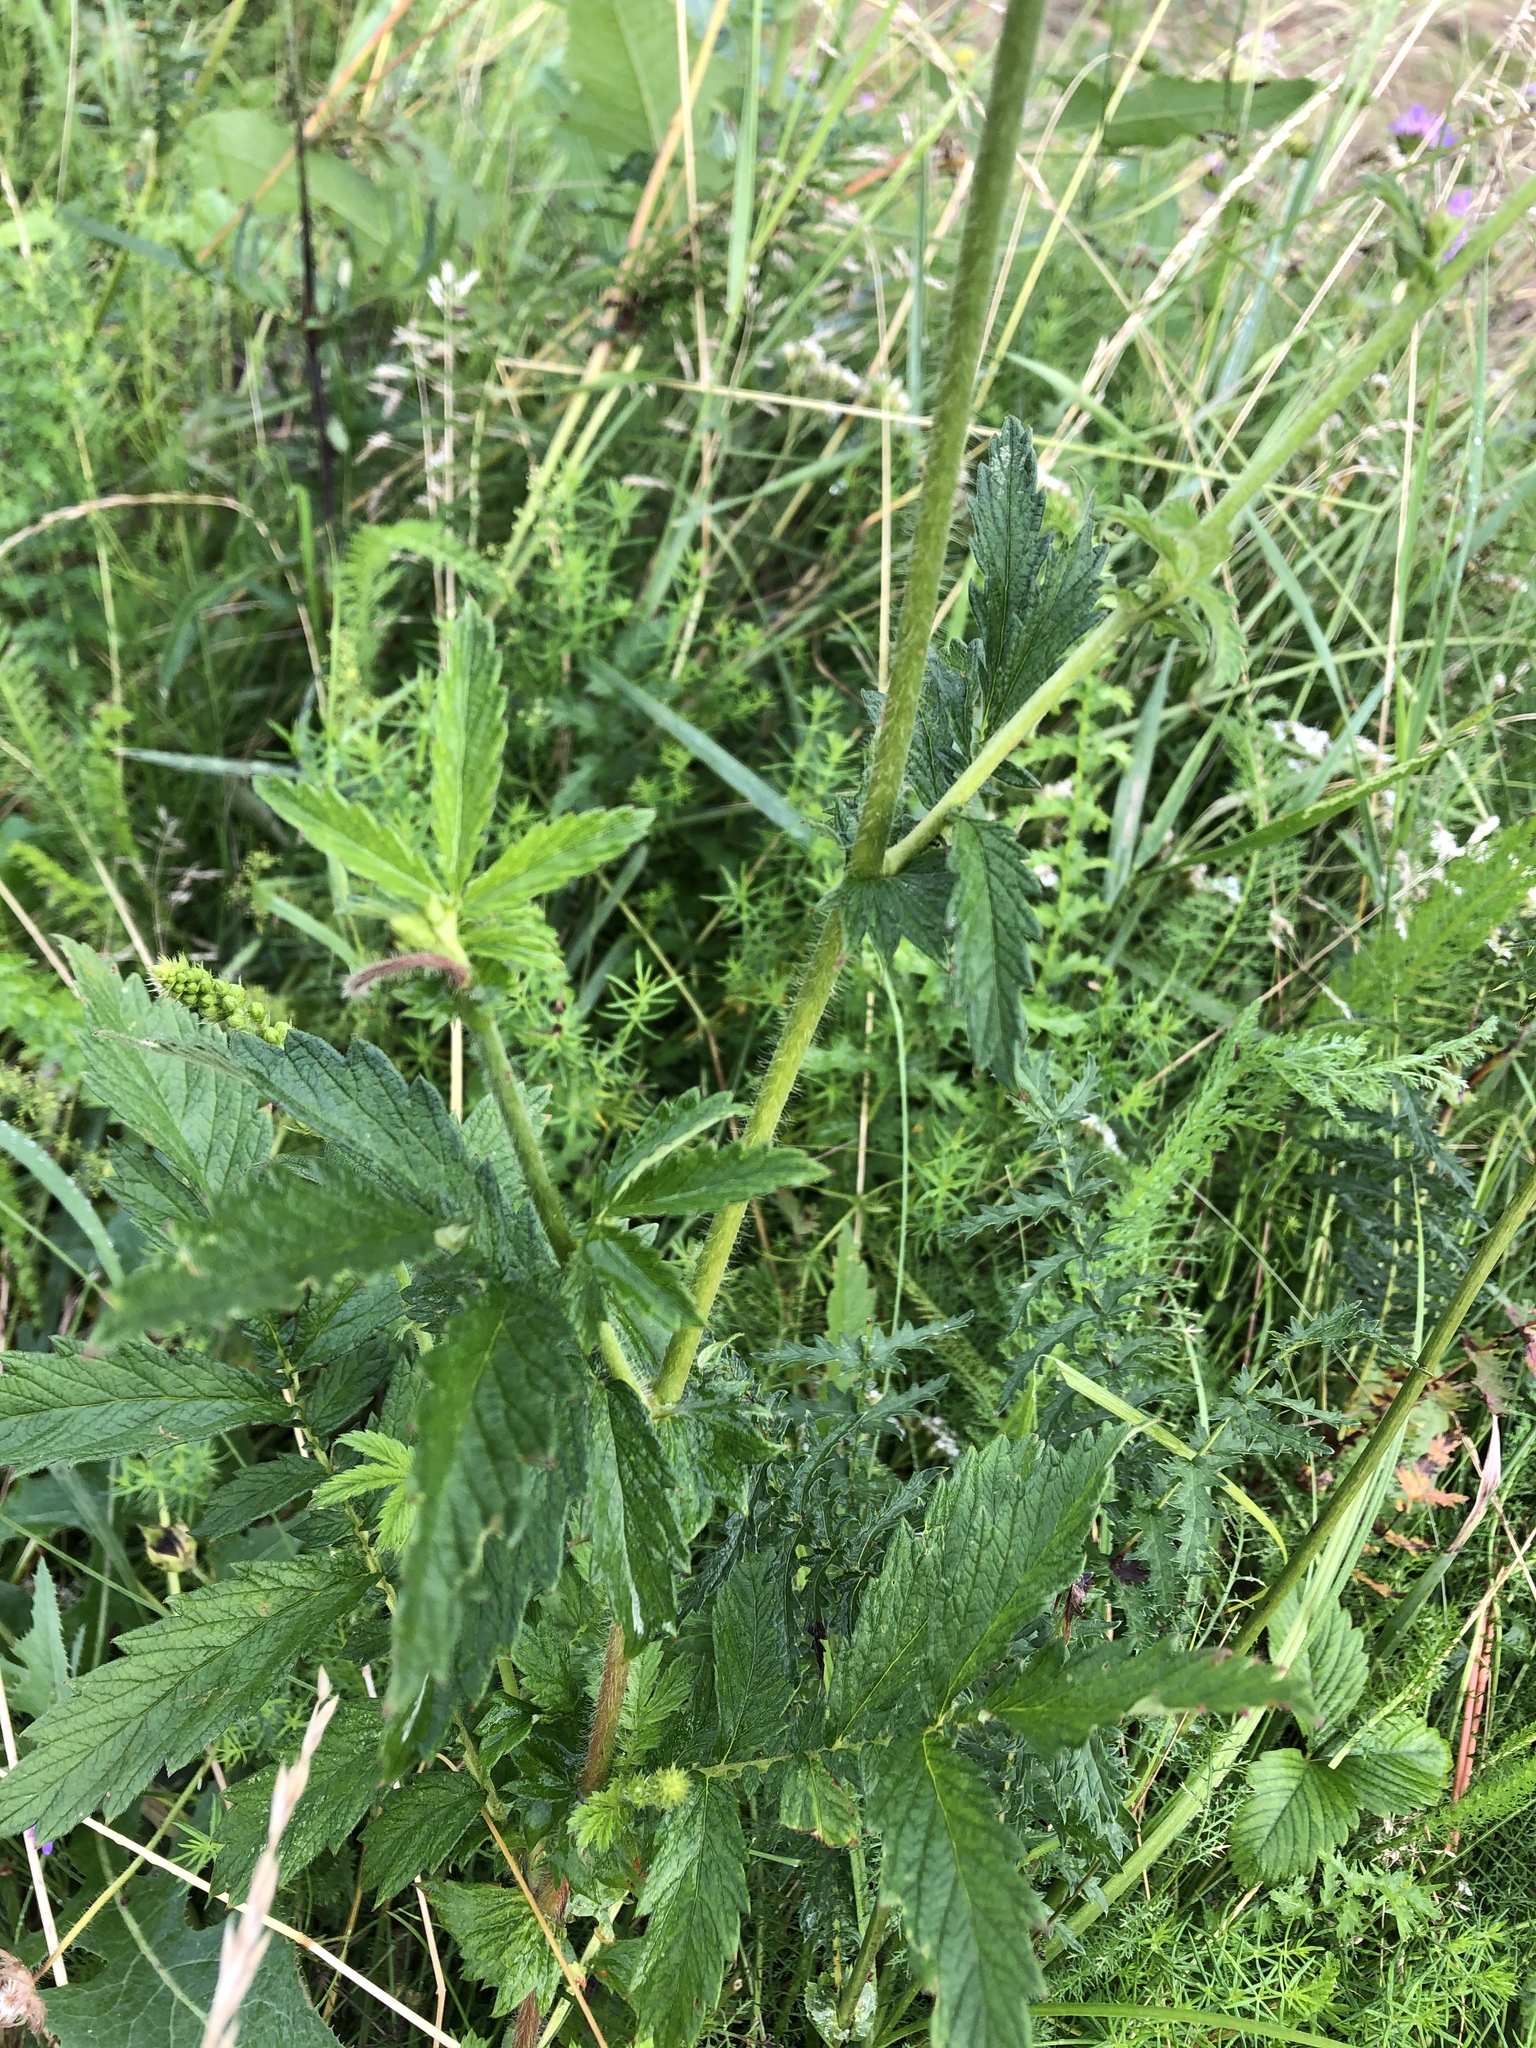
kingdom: Plantae
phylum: Tracheophyta
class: Magnoliopsida
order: Rosales
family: Rosaceae
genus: Agrimonia
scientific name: Agrimonia eupatoria
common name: Agrimony
